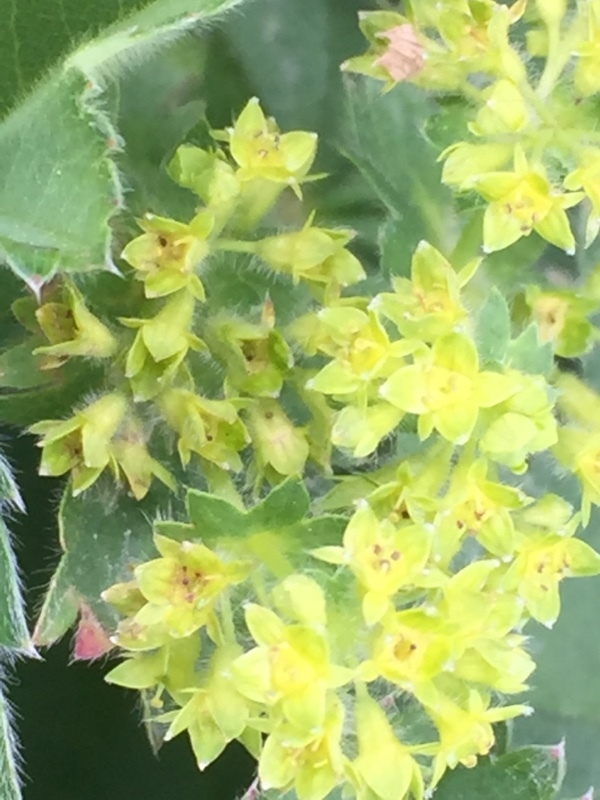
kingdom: Plantae
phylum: Tracheophyta
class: Magnoliopsida
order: Rosales
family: Rosaceae
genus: Alchemilla
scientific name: Alchemilla monticola
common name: Hairy lady's mantle
